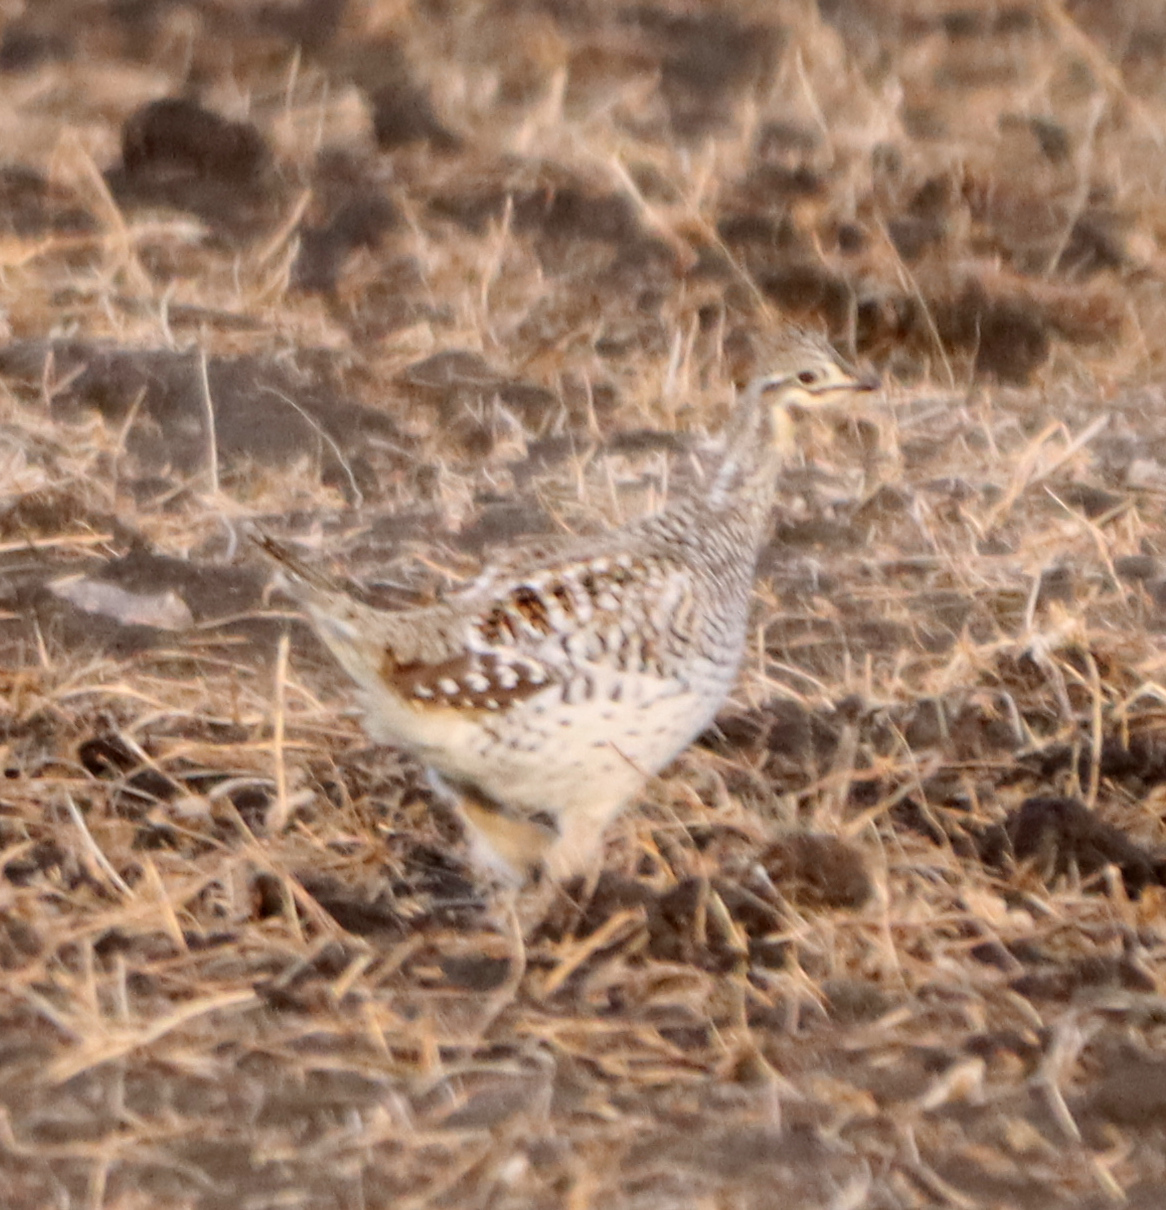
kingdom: Animalia
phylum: Chordata
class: Aves
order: Galliformes
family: Phasianidae
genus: Tympanuchus
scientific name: Tympanuchus phasianellus
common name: Sharp-tailed grouse
